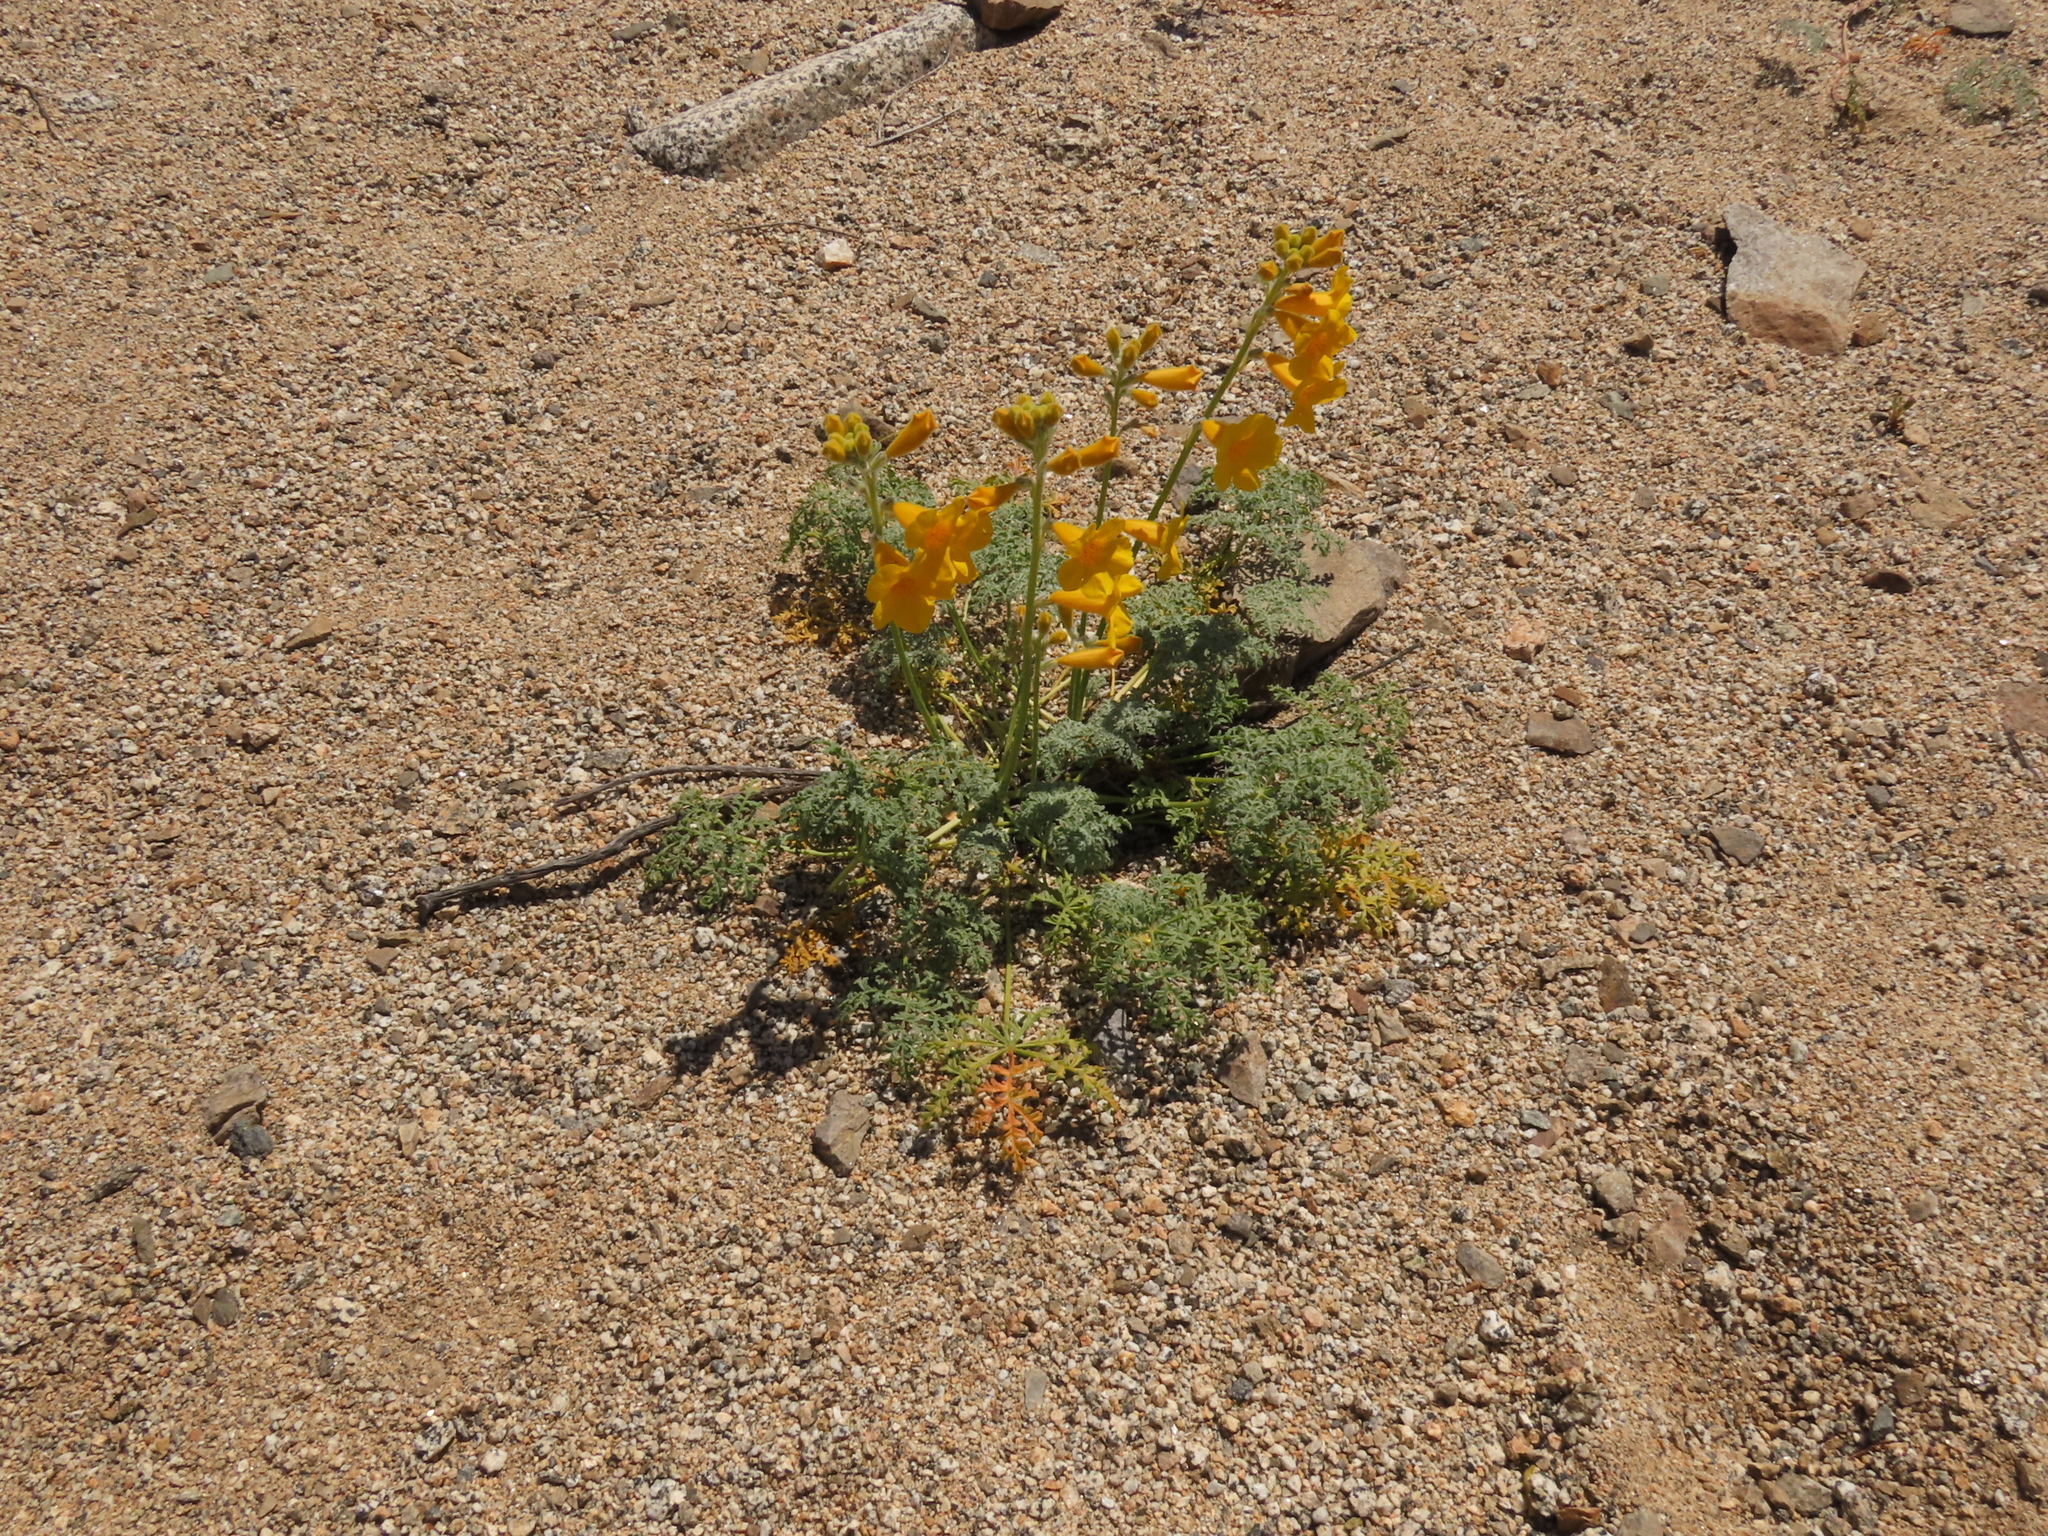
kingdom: Plantae
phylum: Tracheophyta
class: Magnoliopsida
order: Lamiales
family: Bignoniaceae
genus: Argylia
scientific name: Argylia radiata
